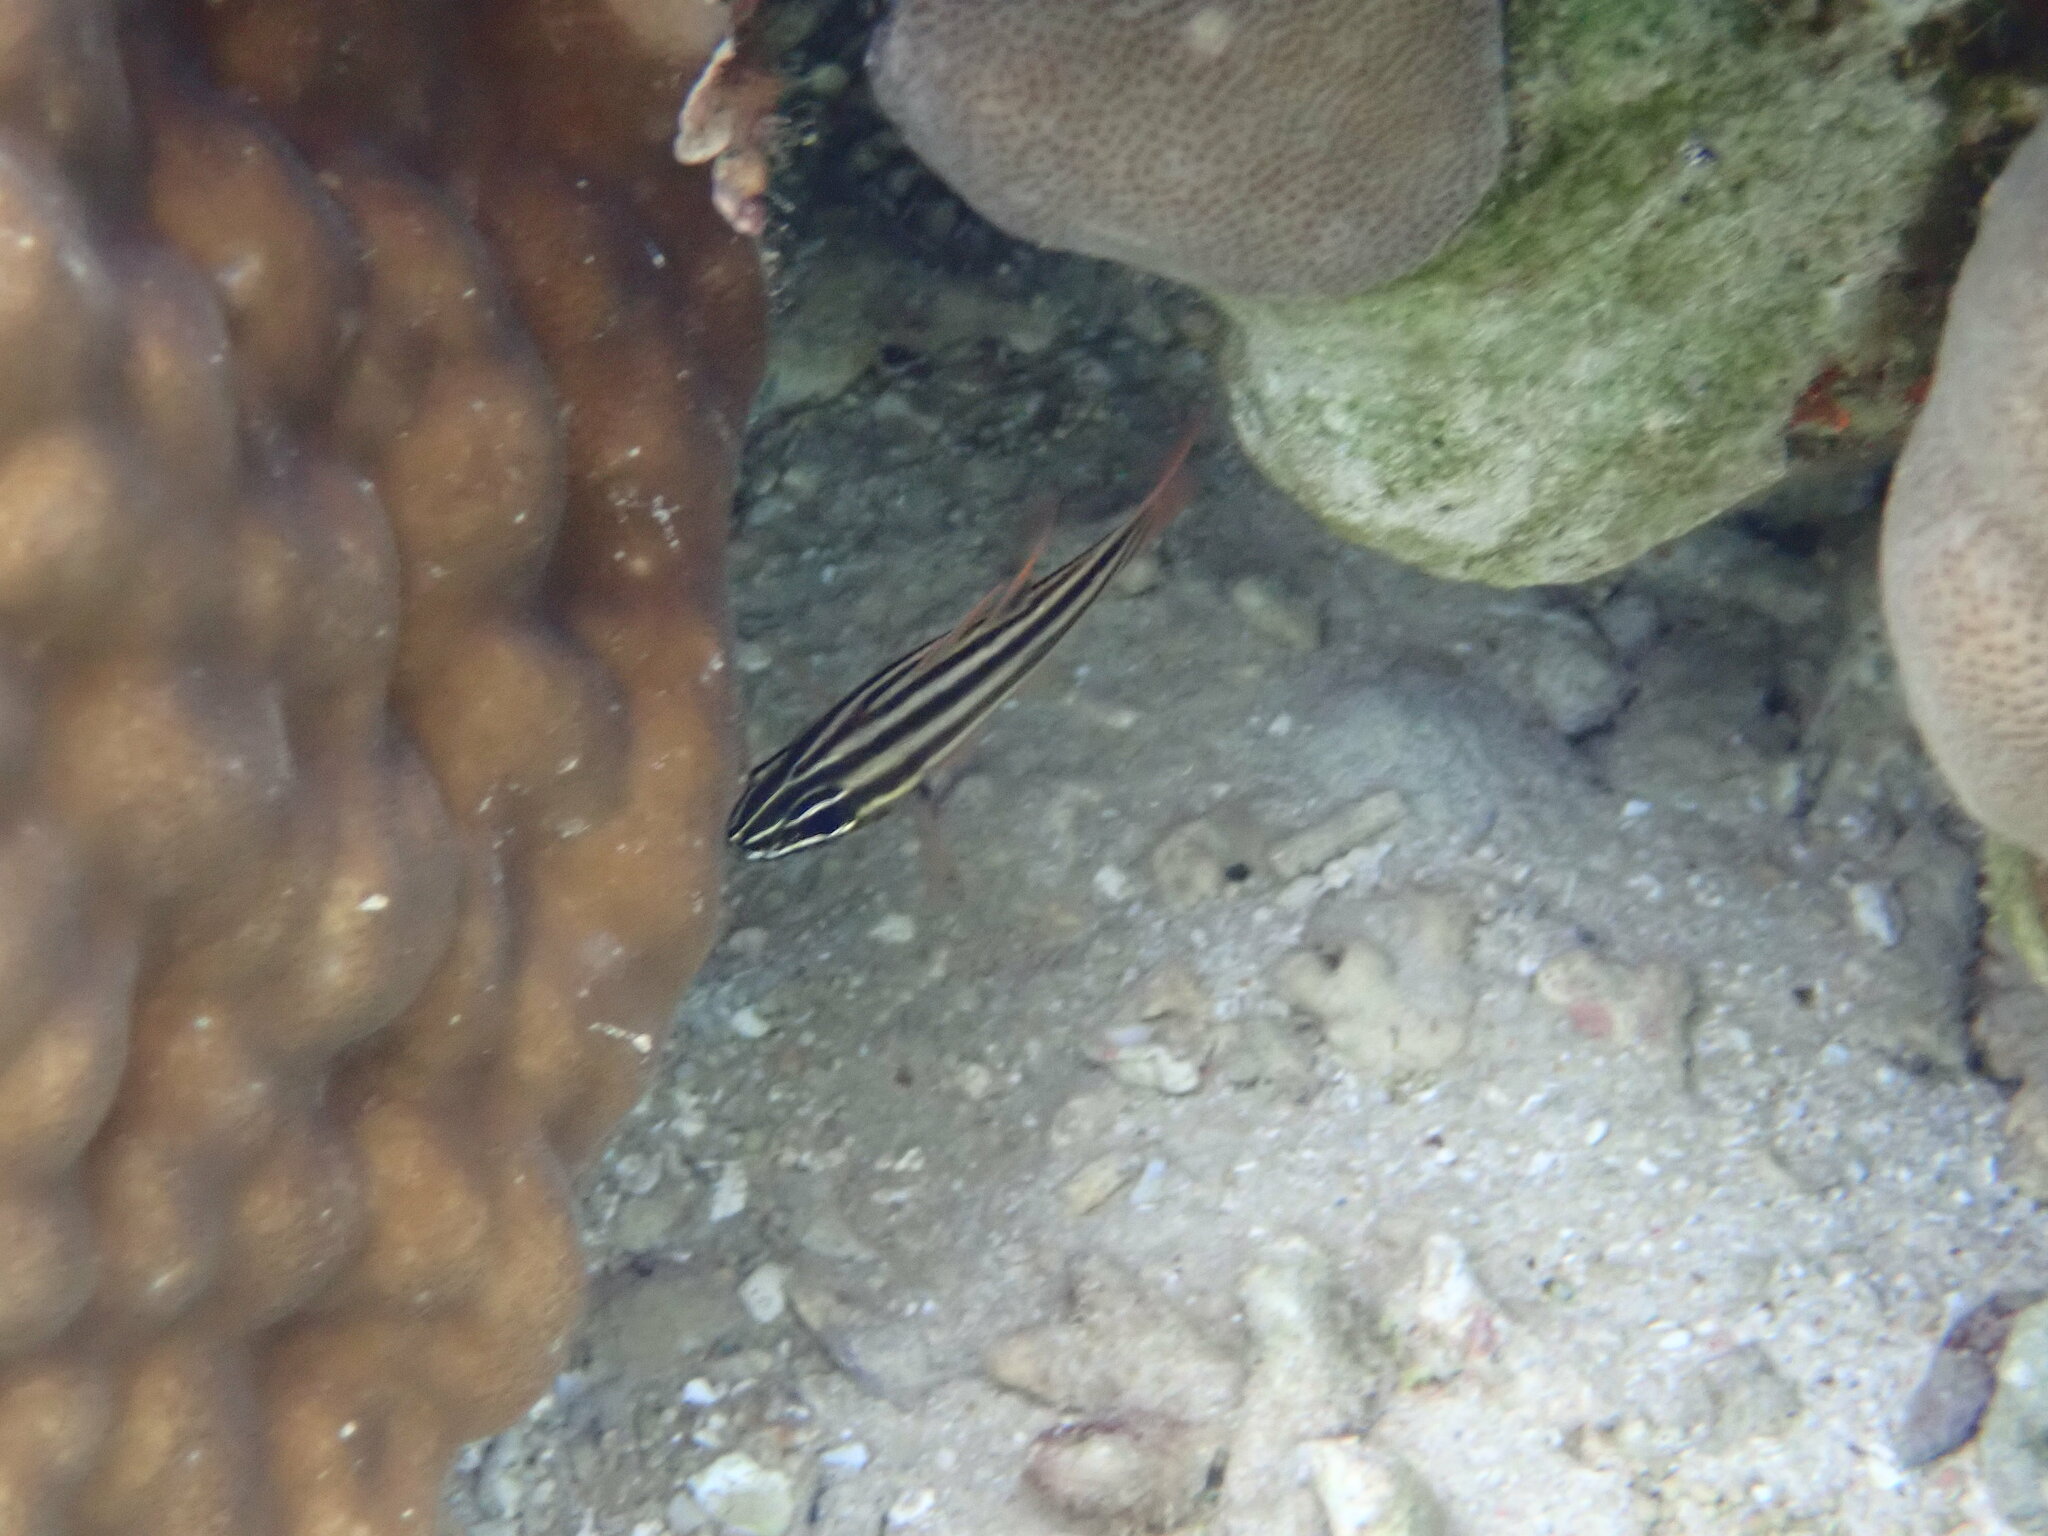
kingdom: Animalia
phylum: Chordata
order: Perciformes
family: Apogonidae
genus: Ostorhinchus
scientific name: Ostorhinchus nigrofasciatus
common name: Blackstripe cardinalfish
